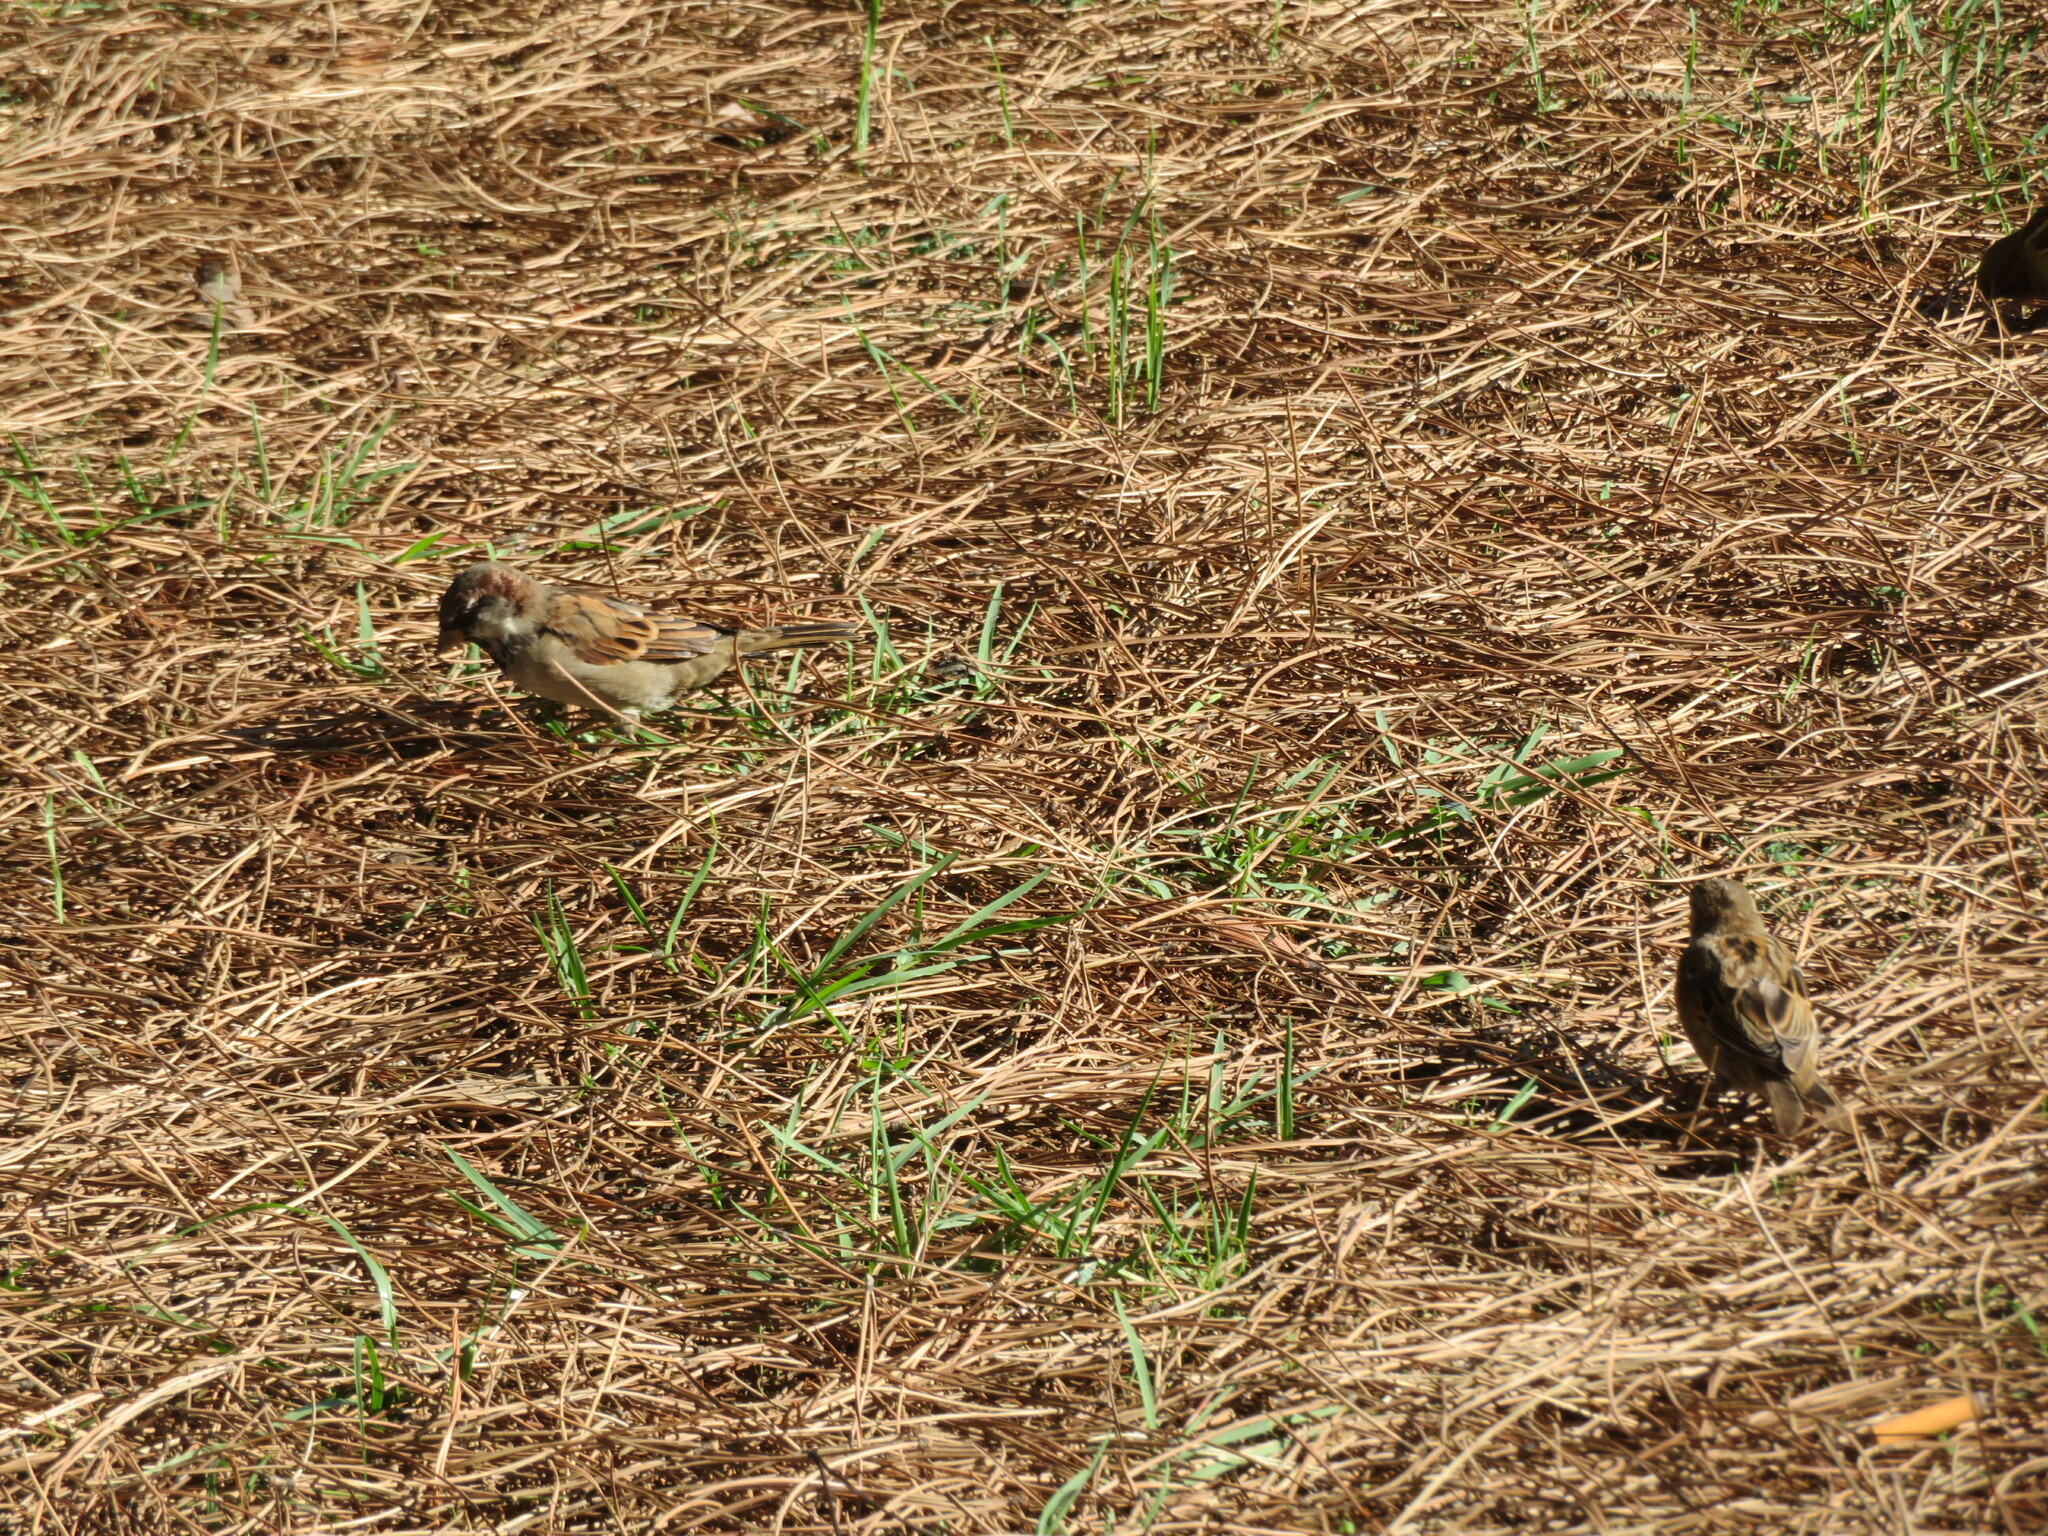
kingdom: Animalia
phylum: Chordata
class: Aves
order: Passeriformes
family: Passeridae
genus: Passer
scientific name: Passer domesticus
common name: House sparrow
